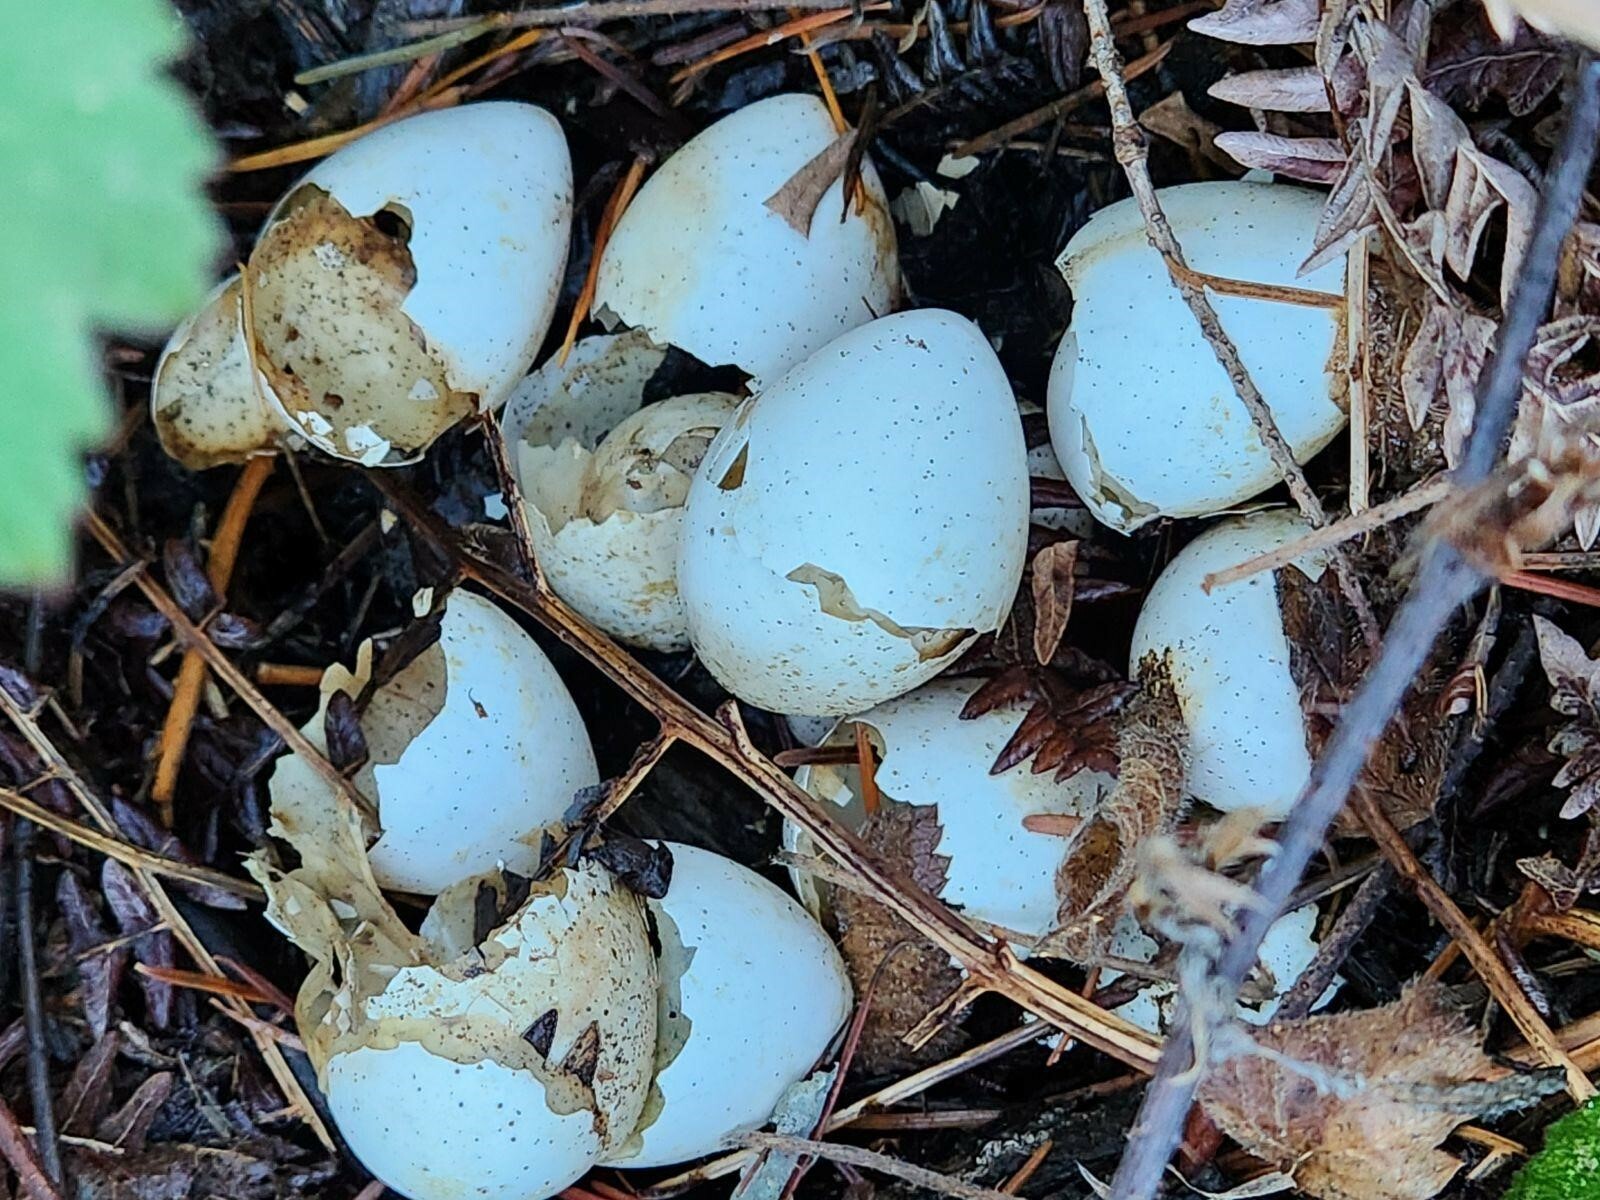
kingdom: Animalia
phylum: Chordata
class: Aves
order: Galliformes
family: Phasianidae
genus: Bonasa
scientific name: Bonasa umbellus
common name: Ruffed grouse
